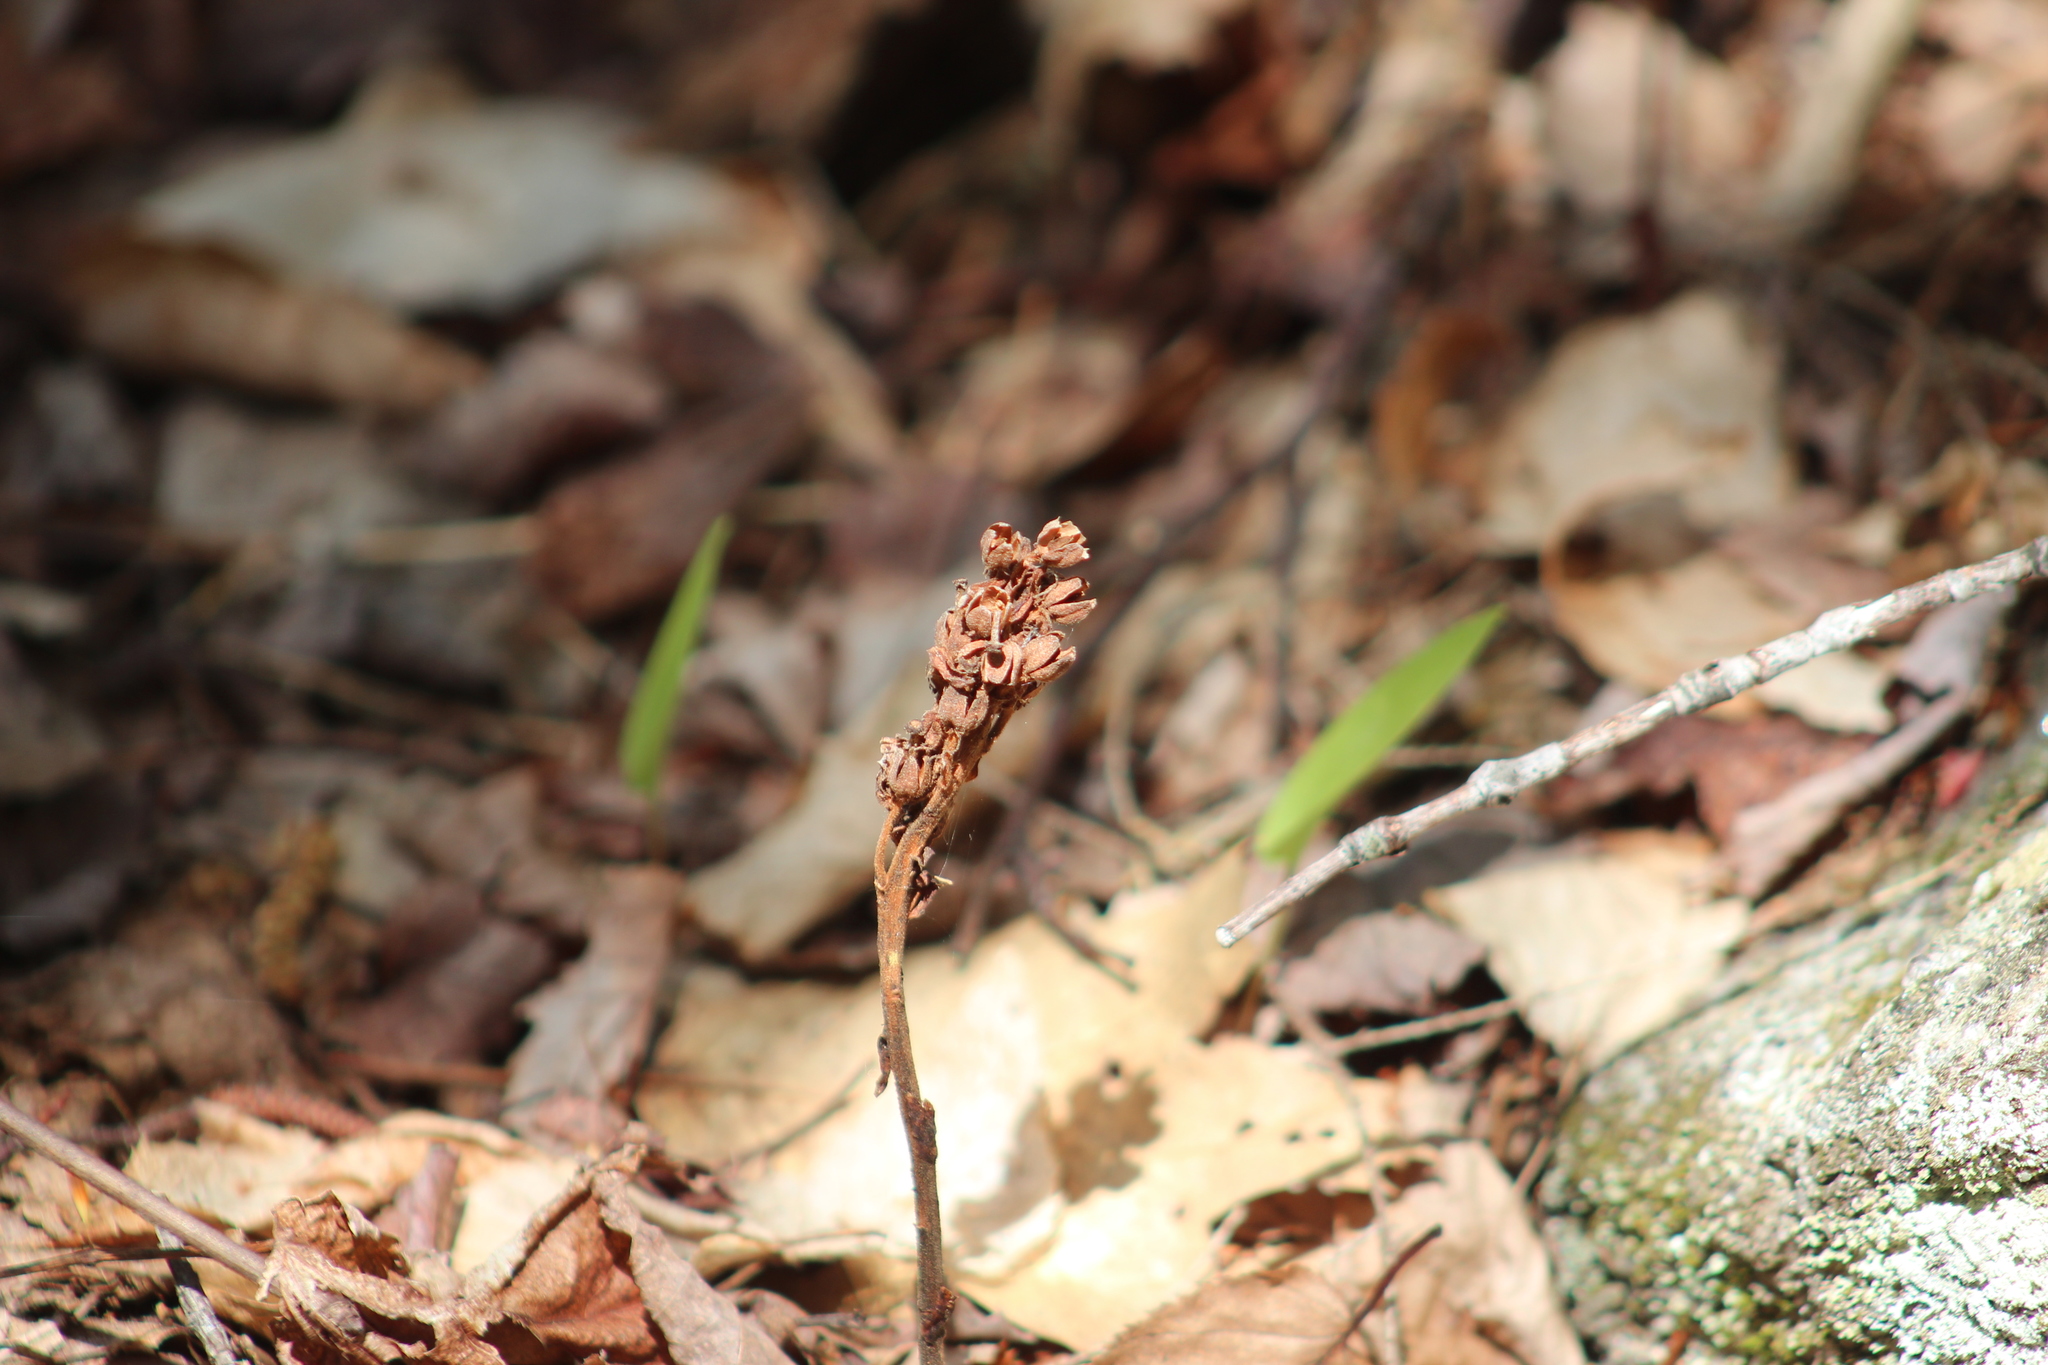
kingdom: Plantae
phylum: Tracheophyta
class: Magnoliopsida
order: Ericales
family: Ericaceae
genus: Hypopitys
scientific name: Hypopitys monotropa
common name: Yellow bird's-nest
